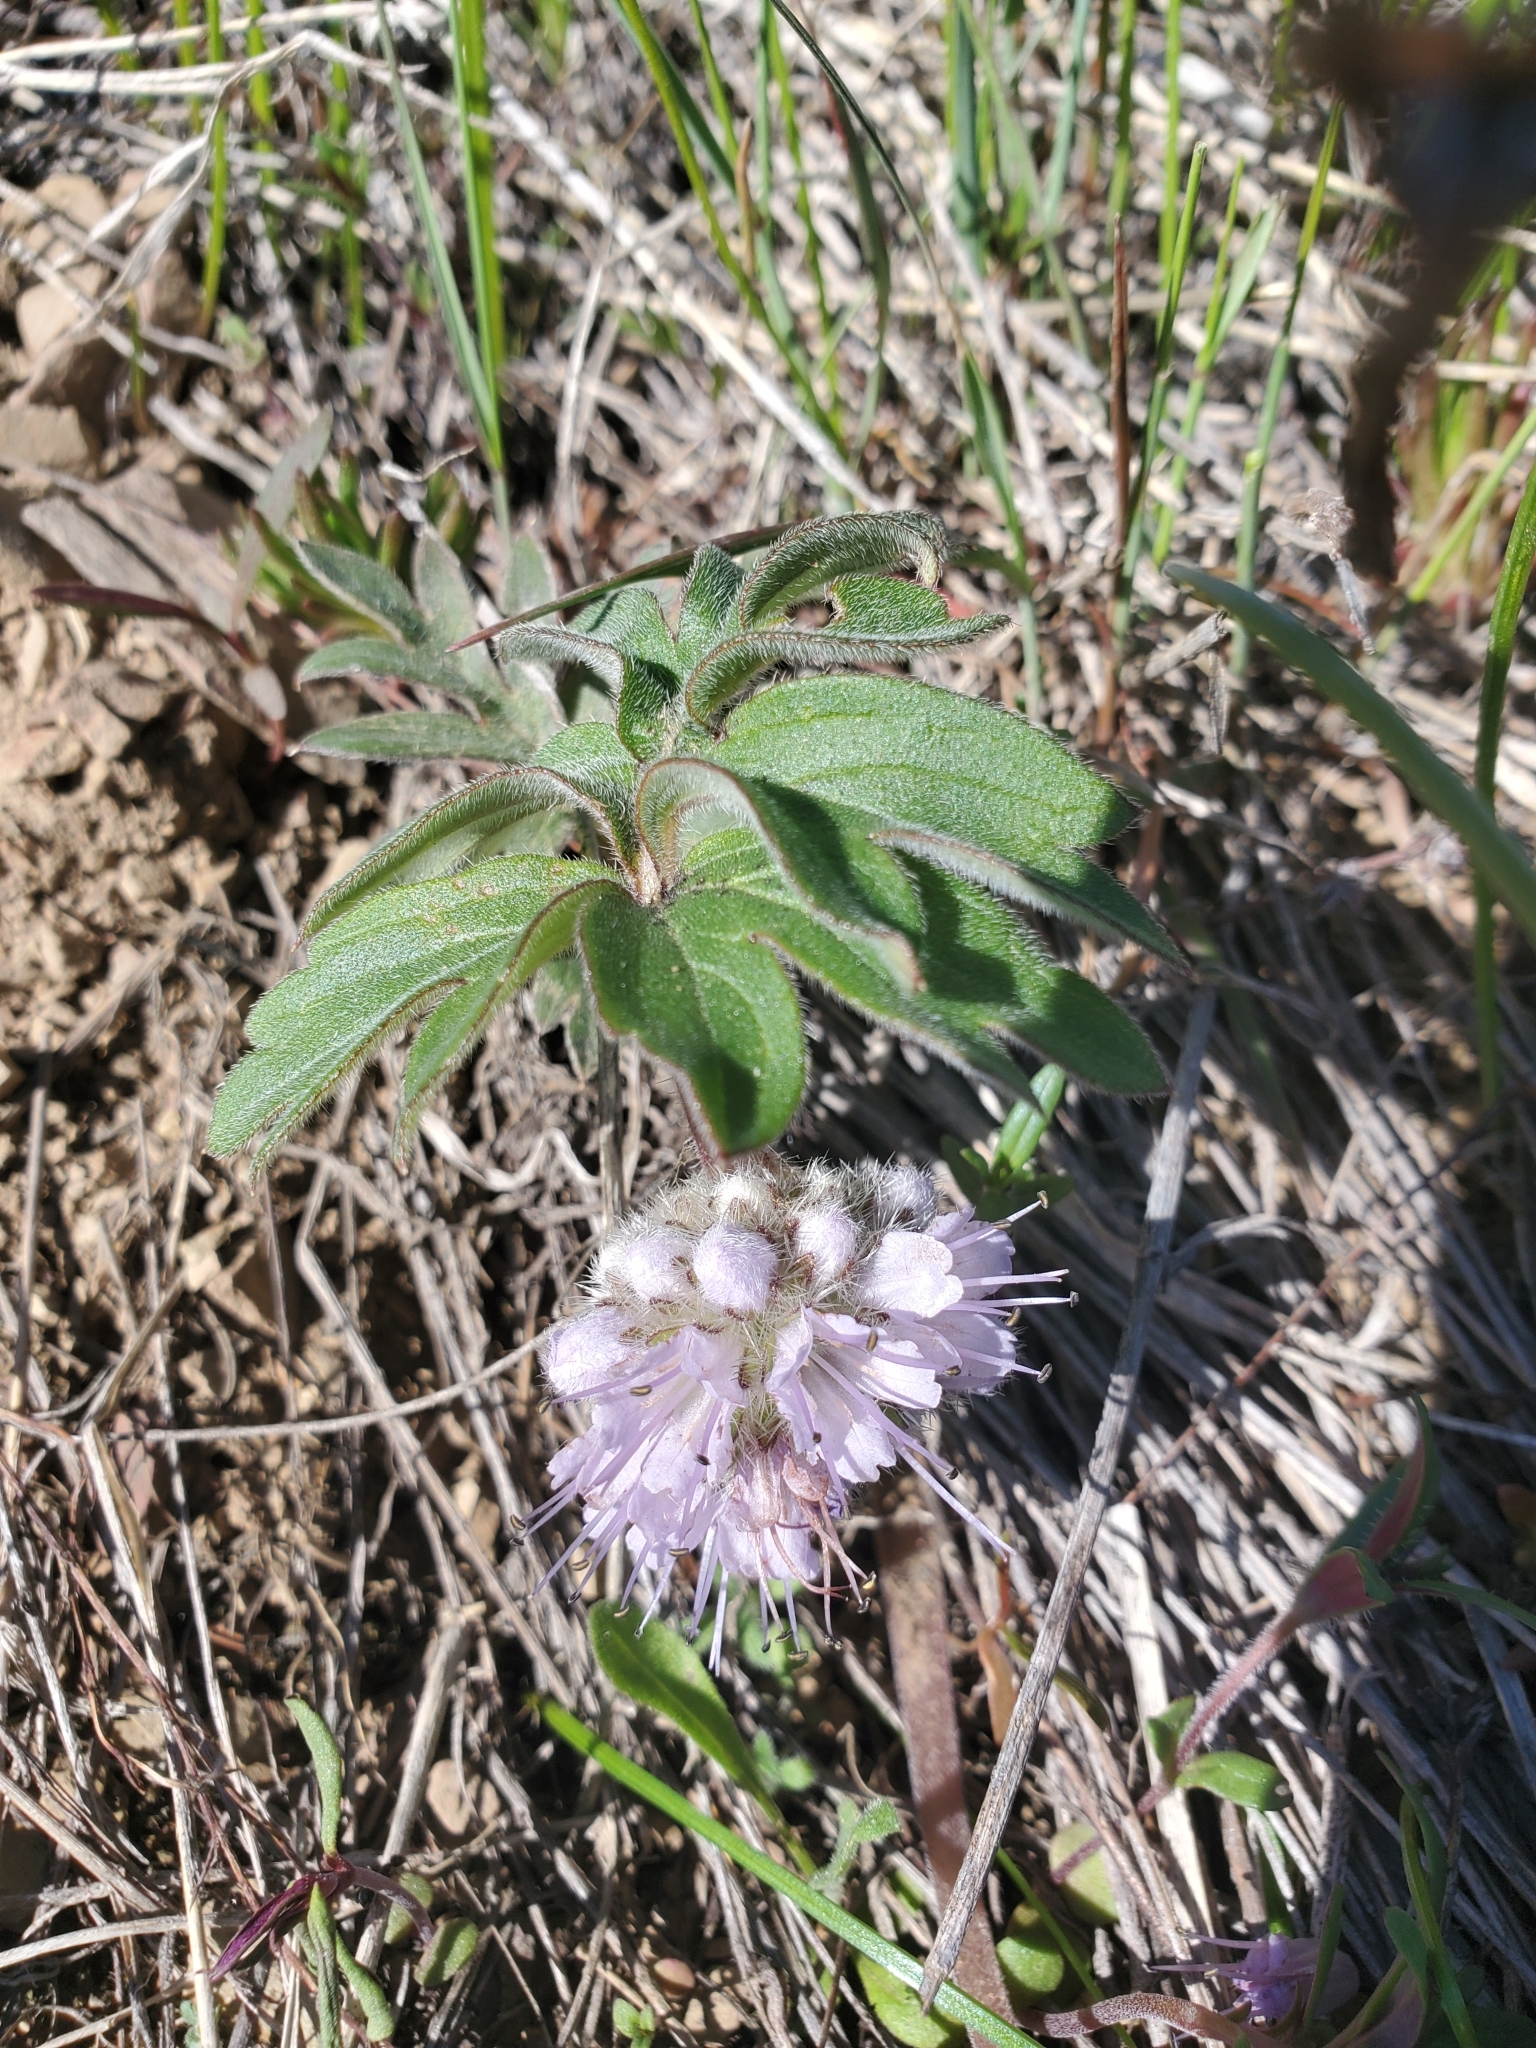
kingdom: Plantae
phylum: Tracheophyta
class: Magnoliopsida
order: Boraginales
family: Hydrophyllaceae
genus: Hydrophyllum
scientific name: Hydrophyllum capitatum
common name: Woollen-breeches
